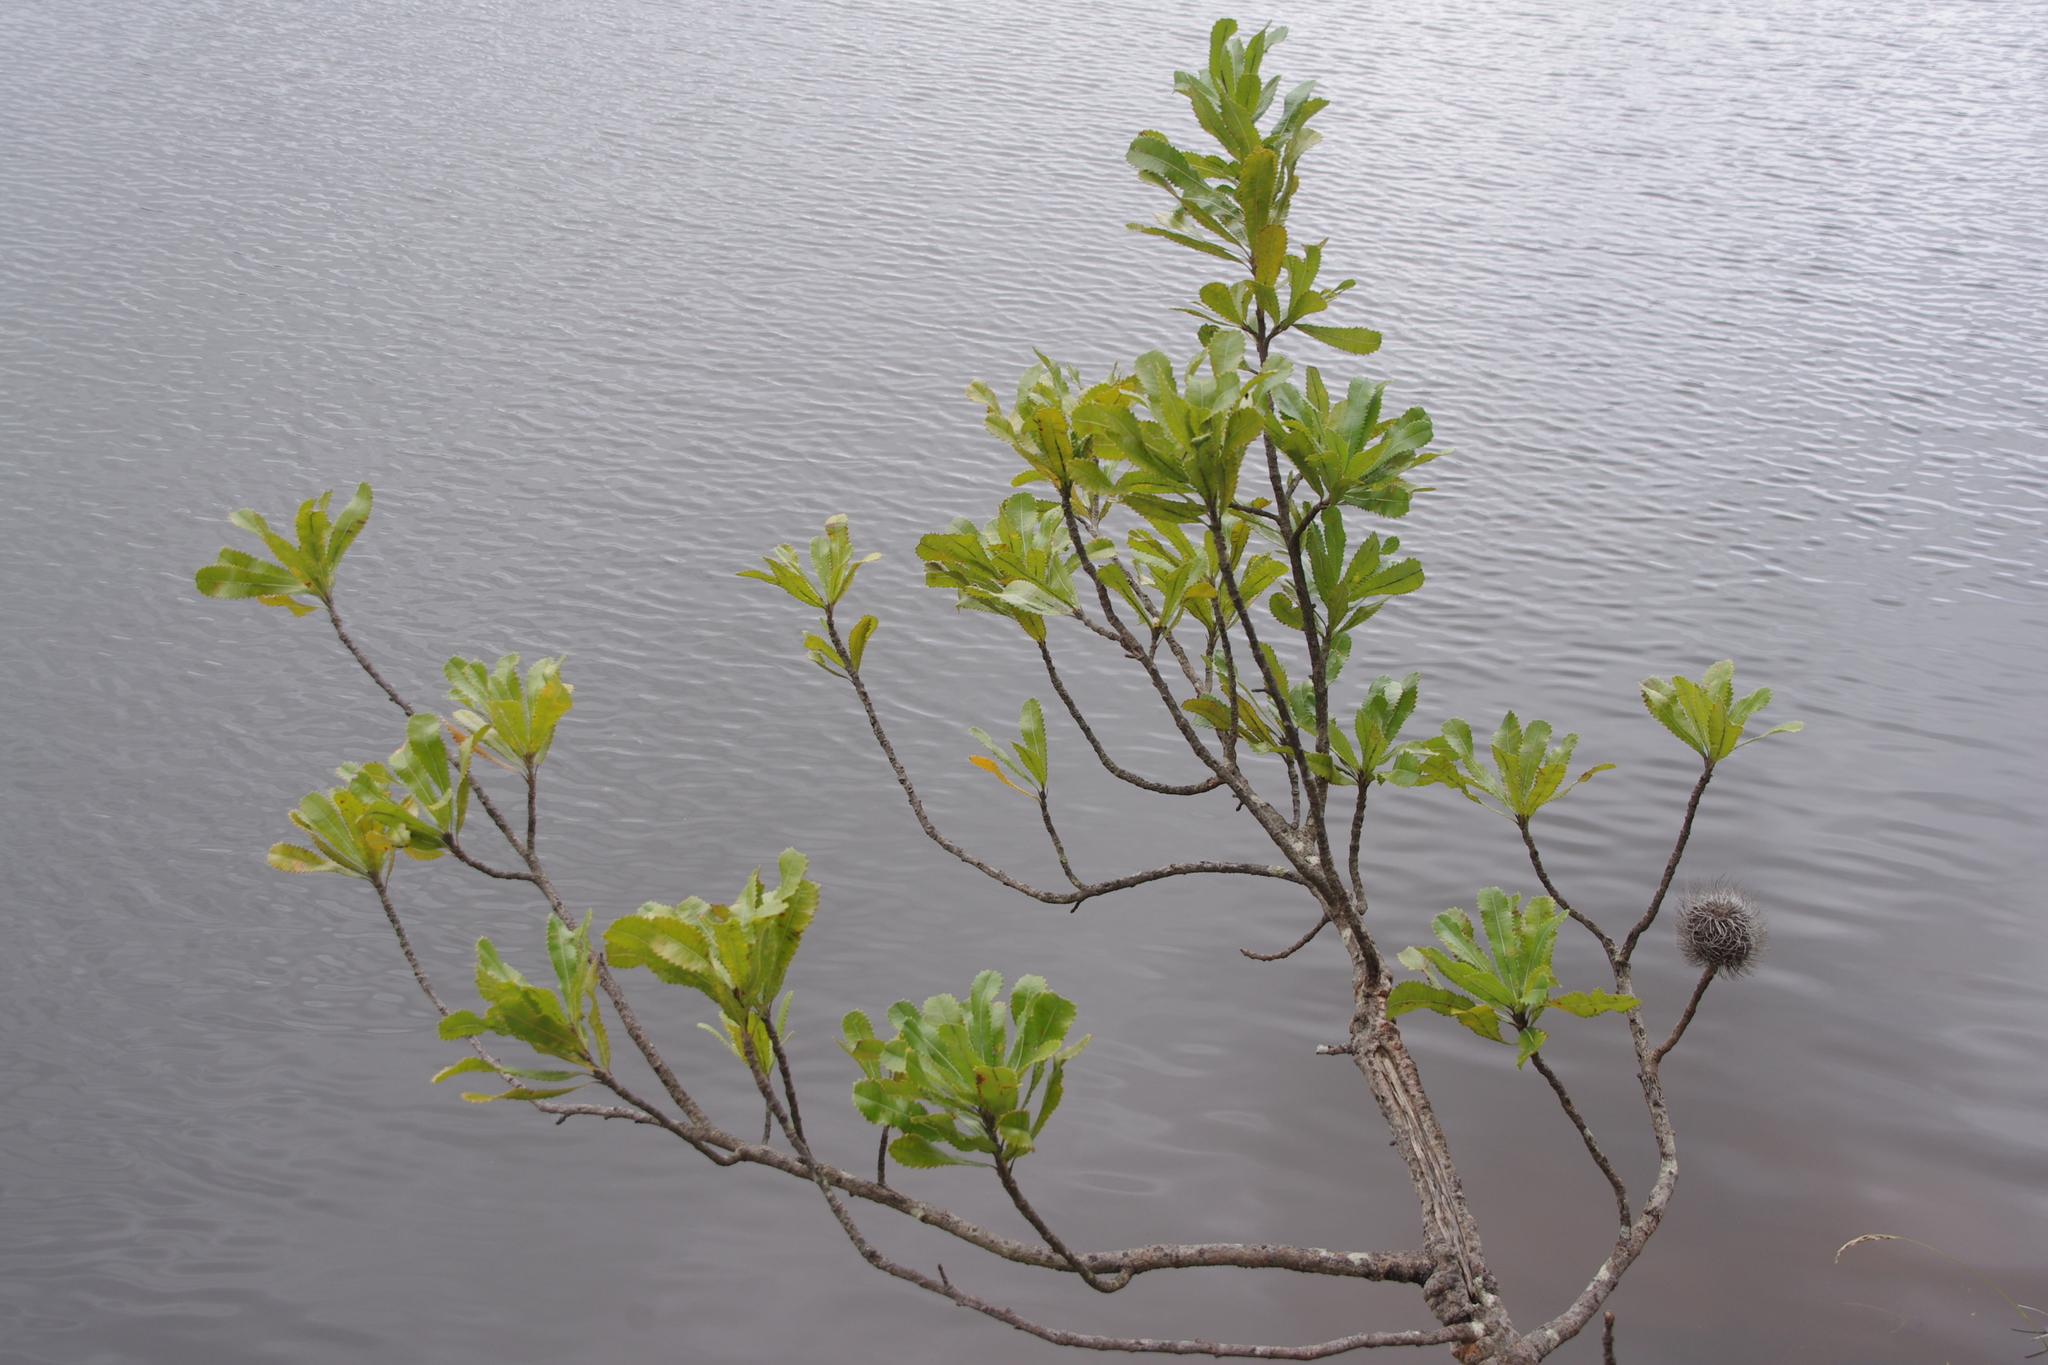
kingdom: Plantae
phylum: Tracheophyta
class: Magnoliopsida
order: Proteales
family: Proteaceae
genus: Banksia
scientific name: Banksia serrata
